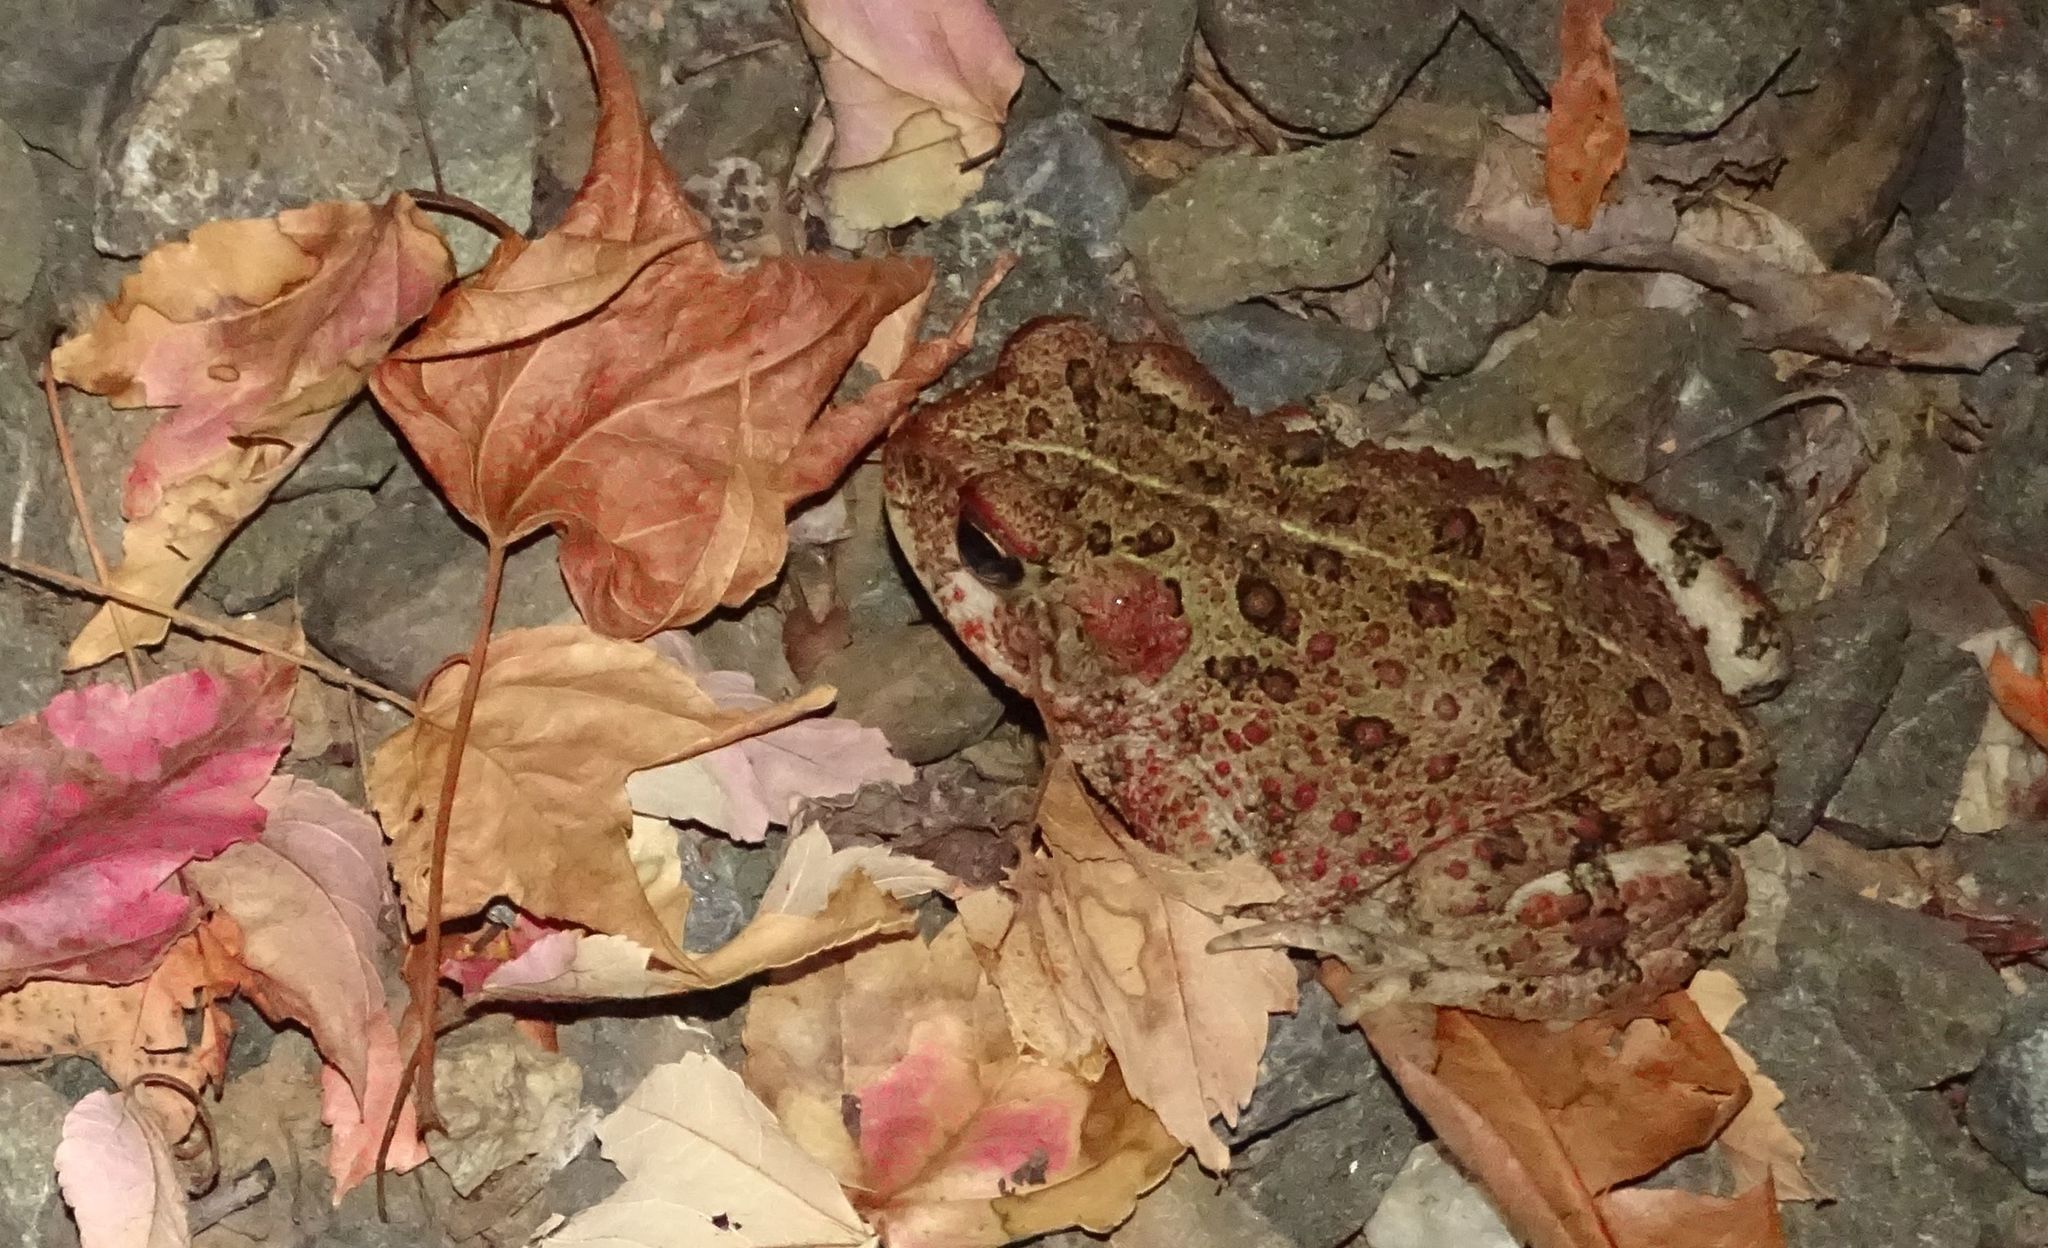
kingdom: Animalia
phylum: Chordata
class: Amphibia
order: Anura
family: Bufonidae
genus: Anaxyrus
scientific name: Anaxyrus boreas
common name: Western toad
